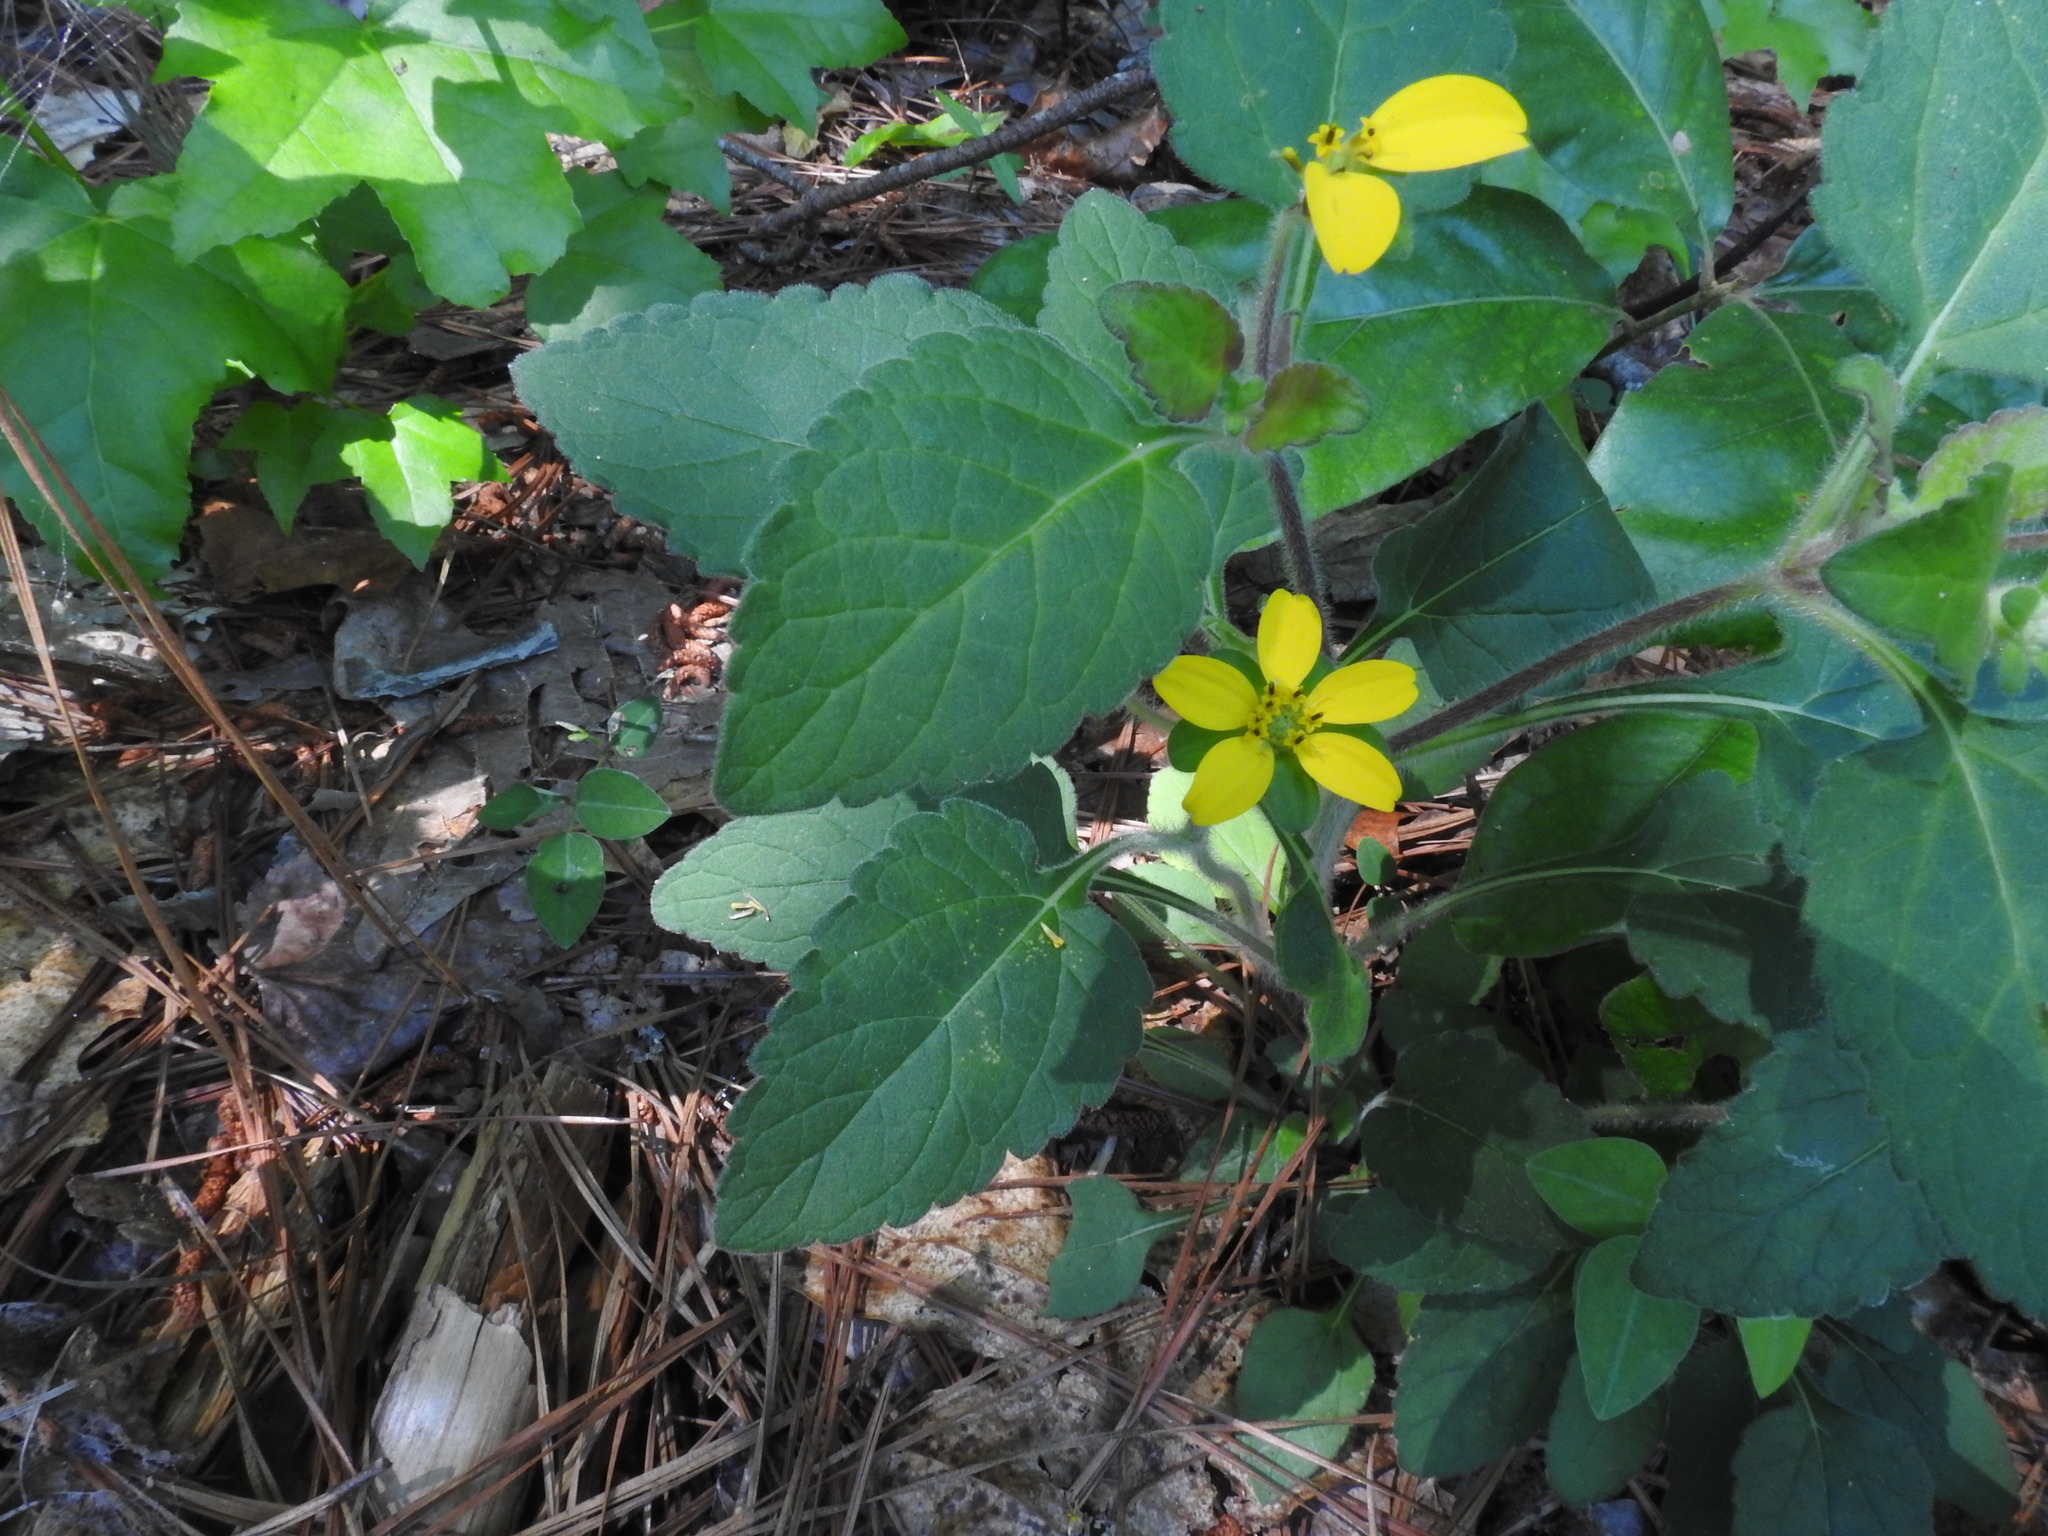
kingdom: Plantae
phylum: Tracheophyta
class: Magnoliopsida
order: Asterales
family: Asteraceae
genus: Chrysogonum
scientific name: Chrysogonum virginianum
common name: Golden-knee
